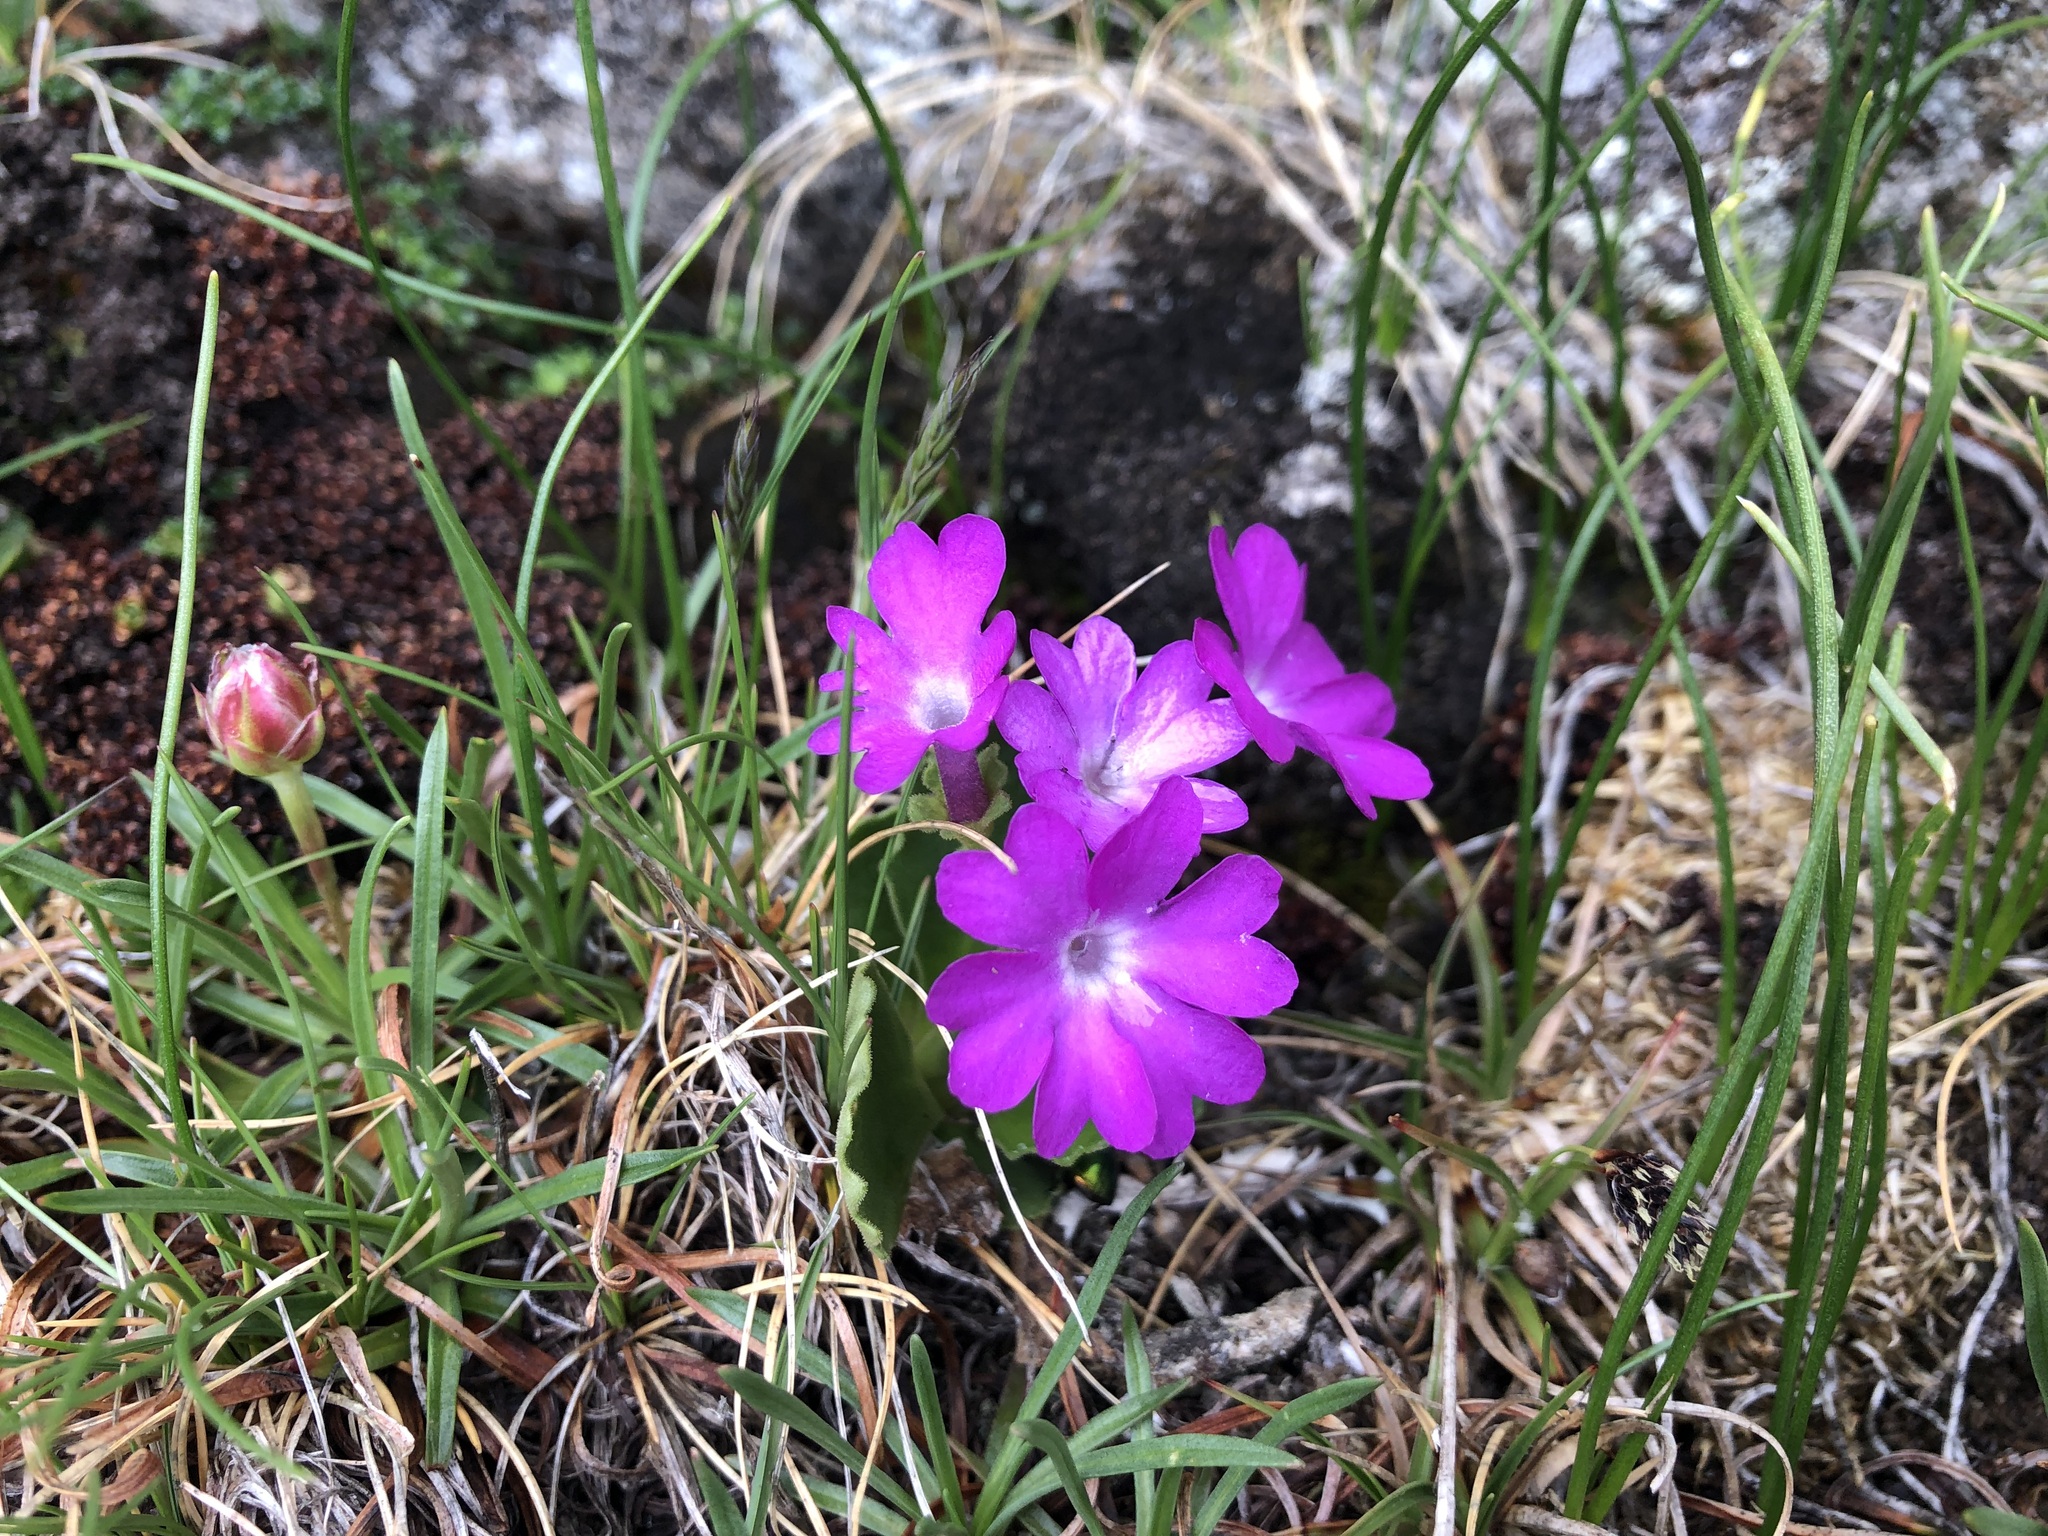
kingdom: Plantae
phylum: Tracheophyta
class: Magnoliopsida
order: Ericales
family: Primulaceae
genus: Primula
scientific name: Primula hirsuta
